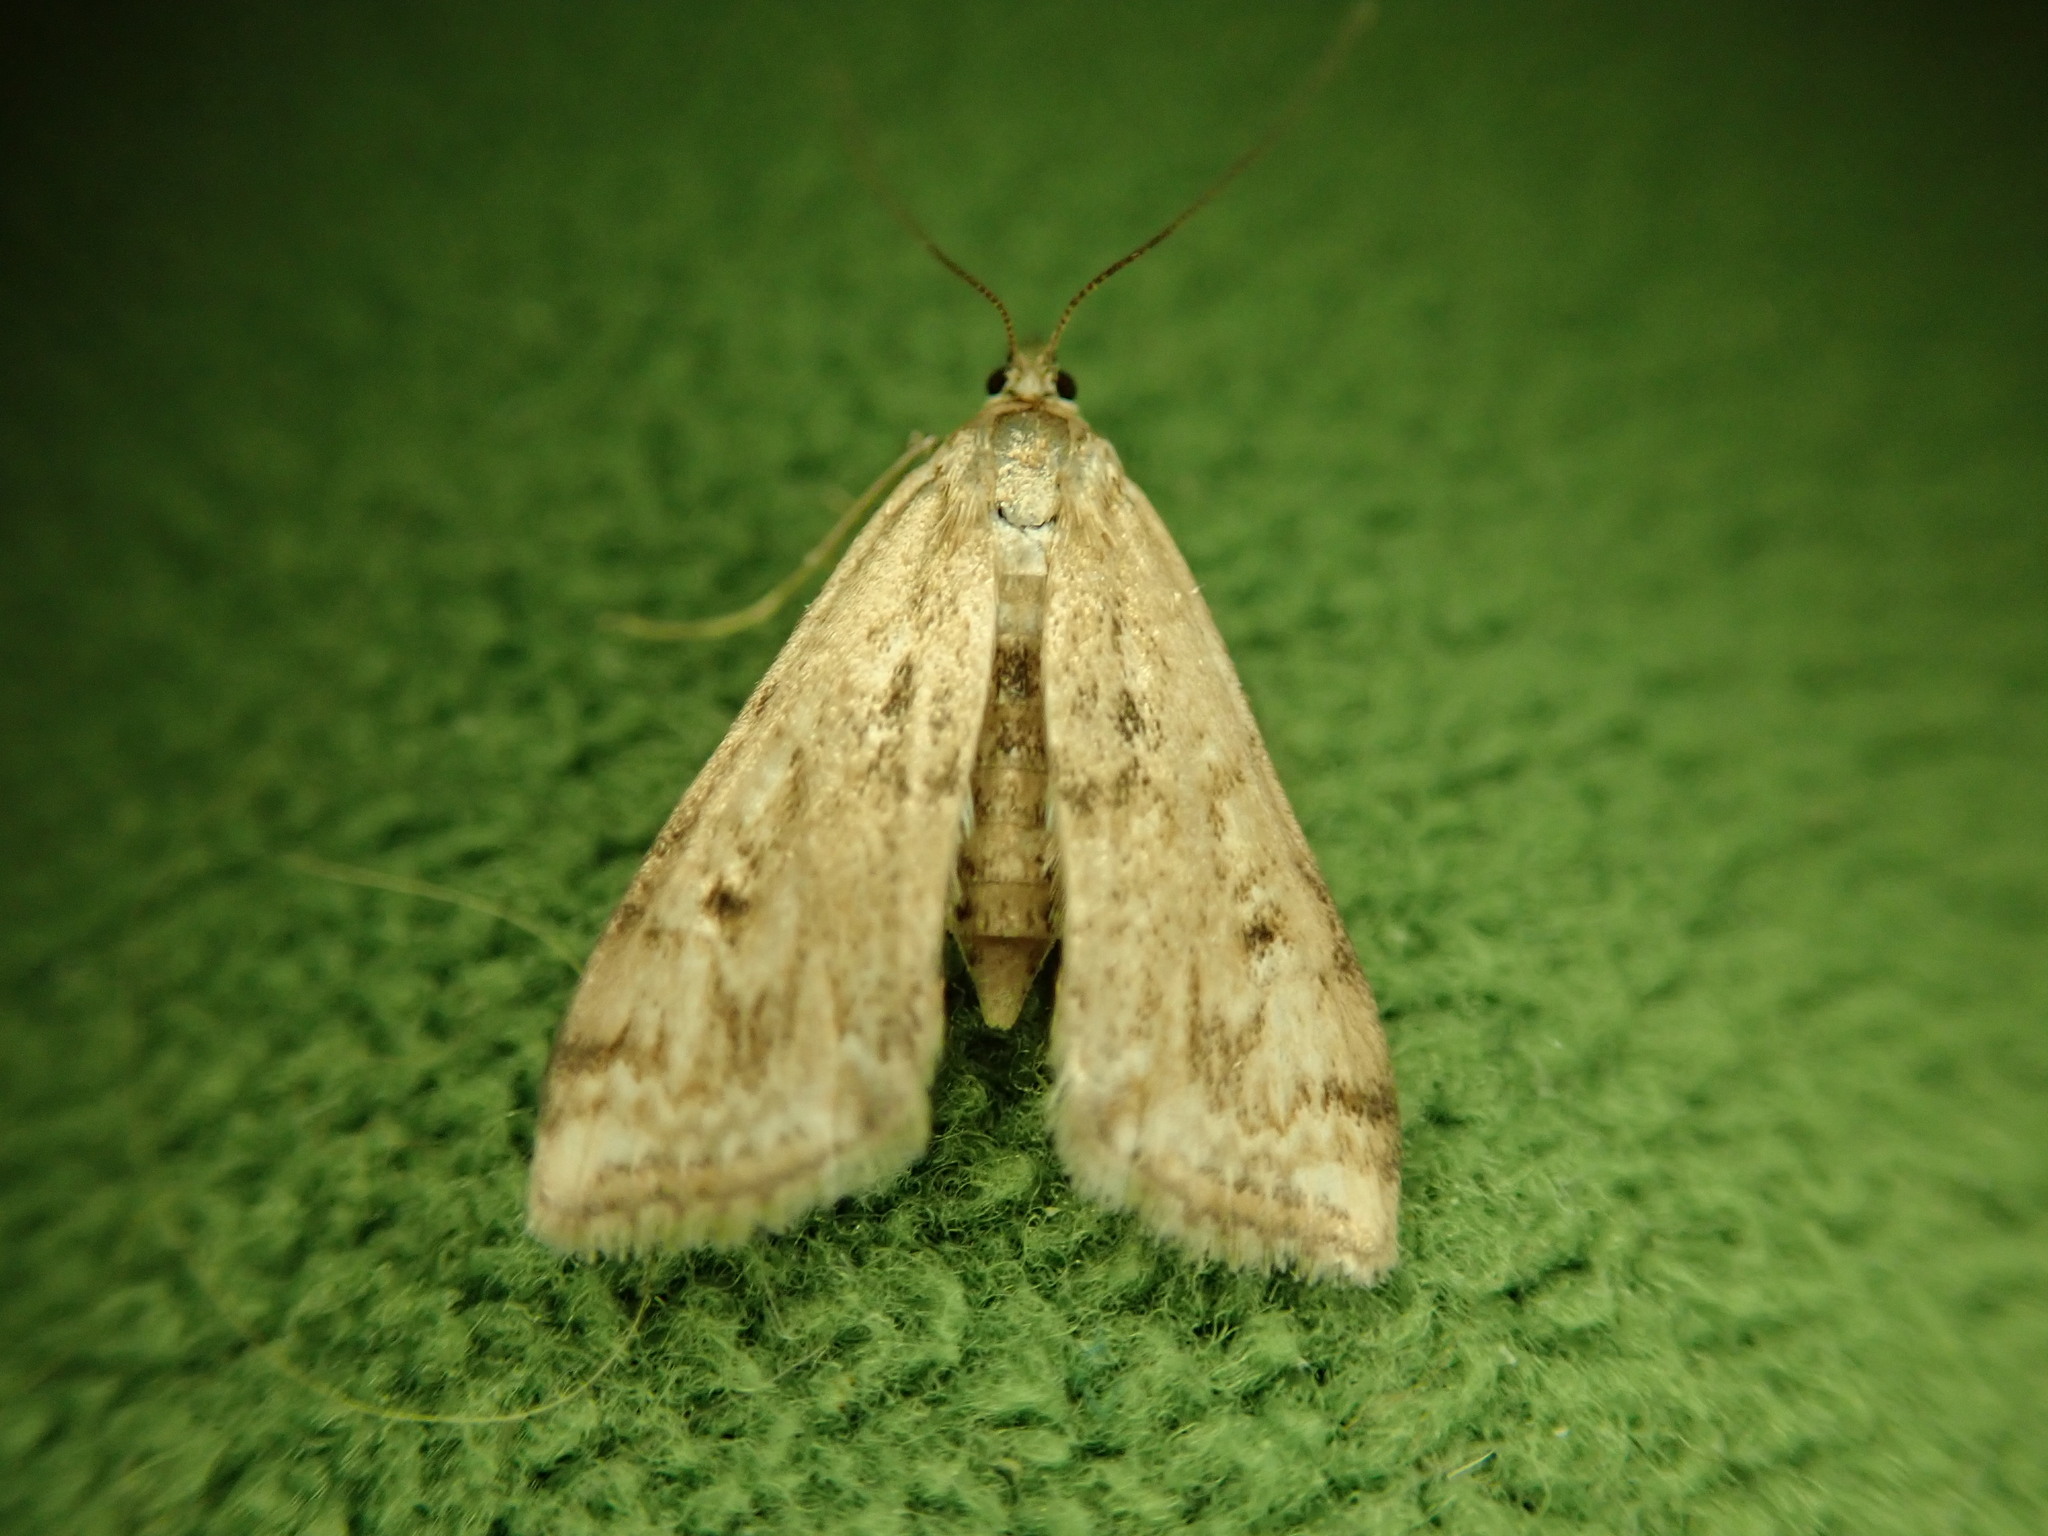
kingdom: Animalia
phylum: Arthropoda
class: Insecta
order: Lepidoptera
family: Crambidae
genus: Cataclysta
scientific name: Cataclysta lemnata
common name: Small china-mark
